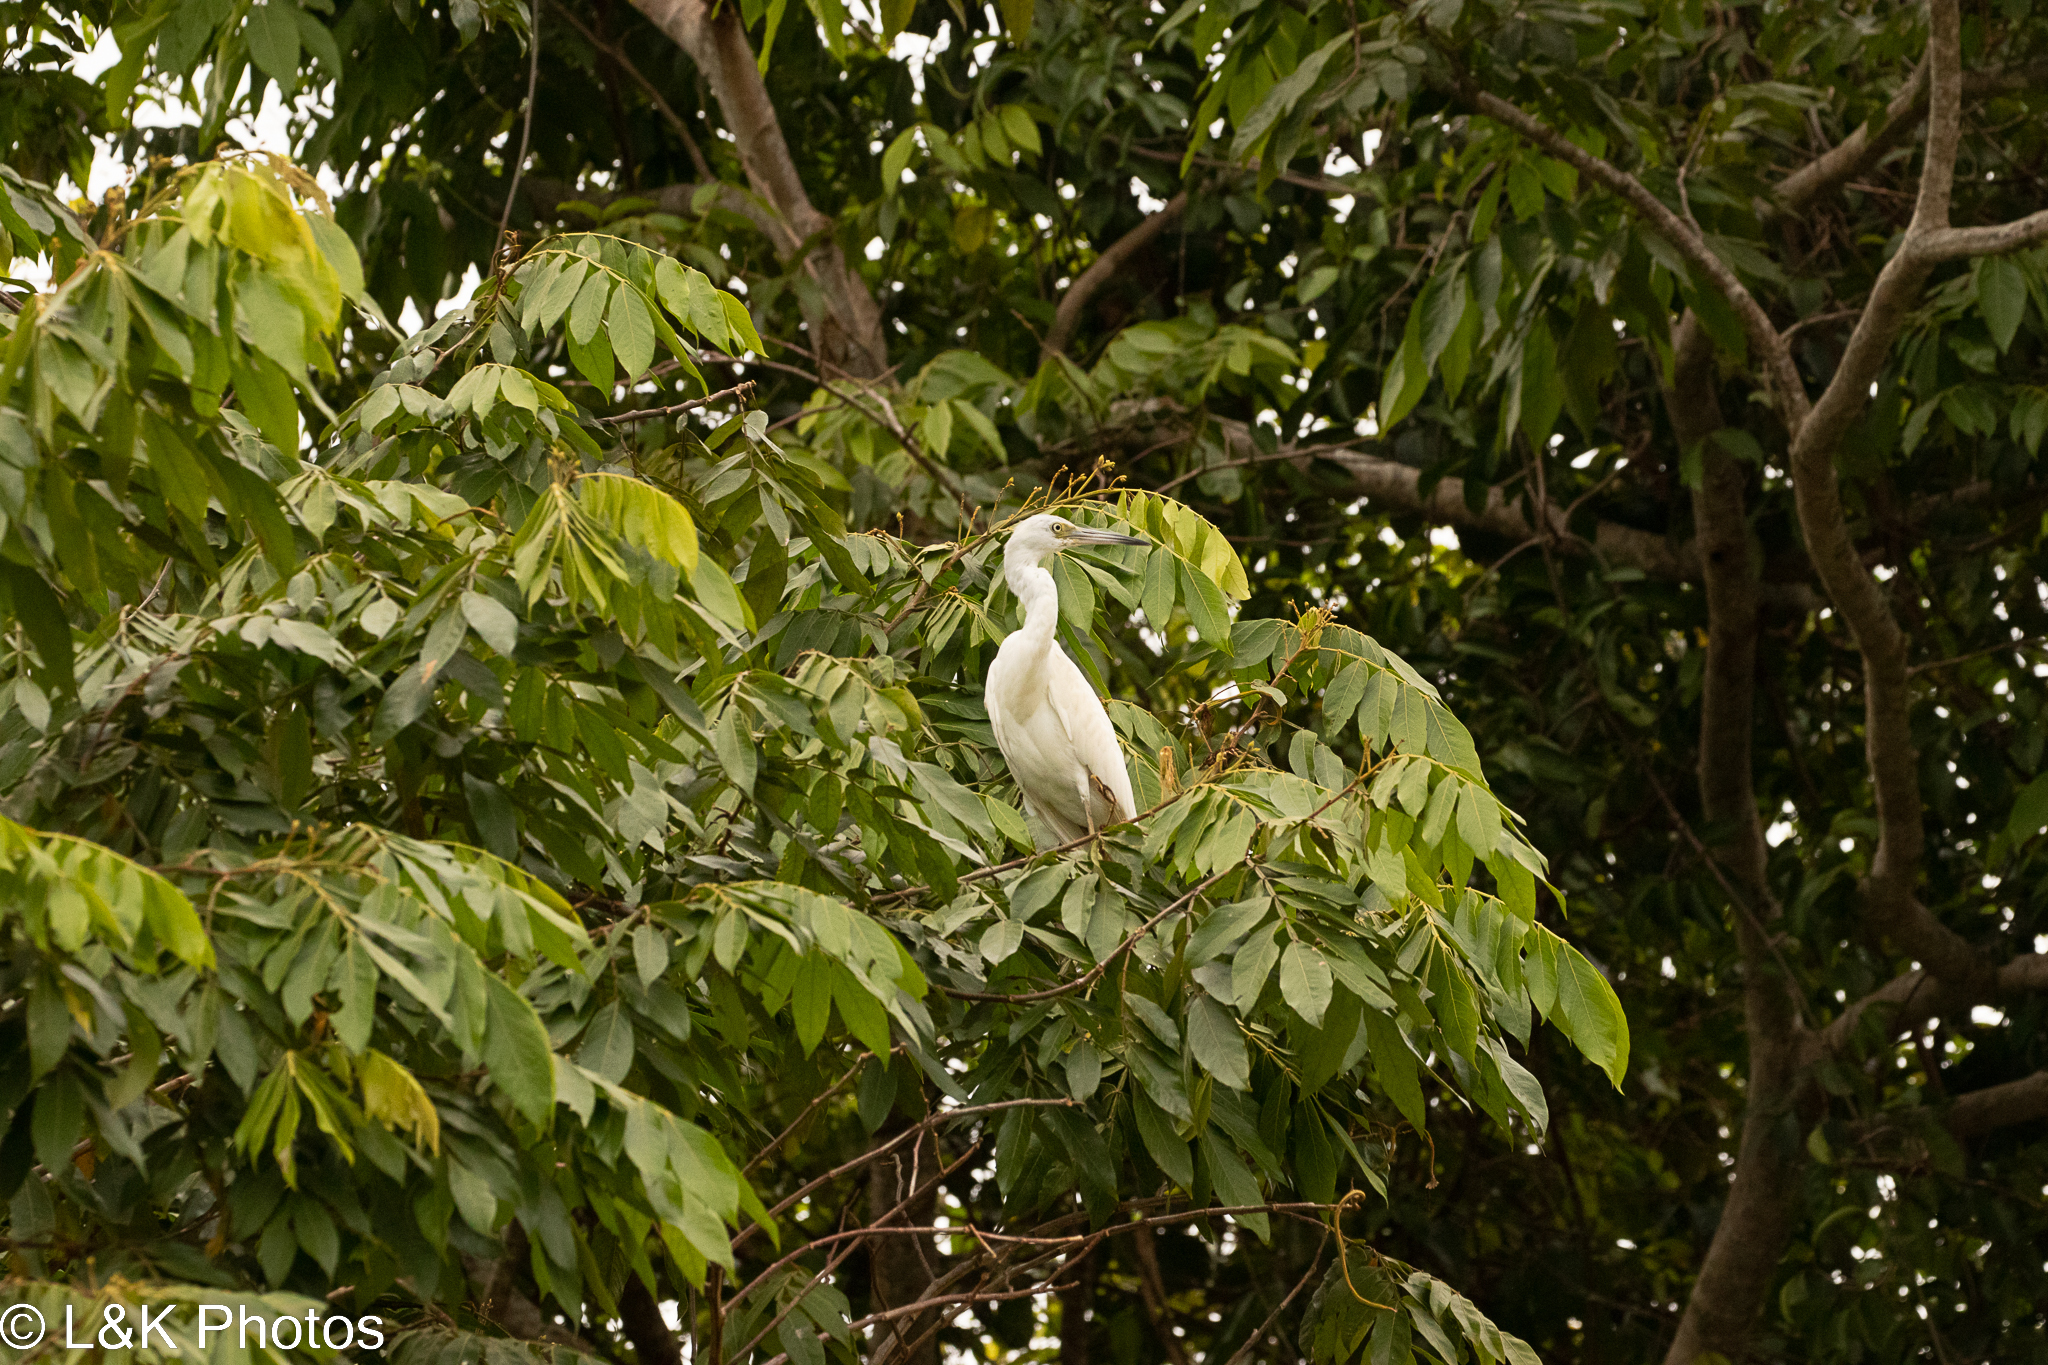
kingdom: Animalia
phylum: Chordata
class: Aves
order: Pelecaniformes
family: Ardeidae
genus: Egretta
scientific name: Egretta caerulea
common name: Little blue heron
